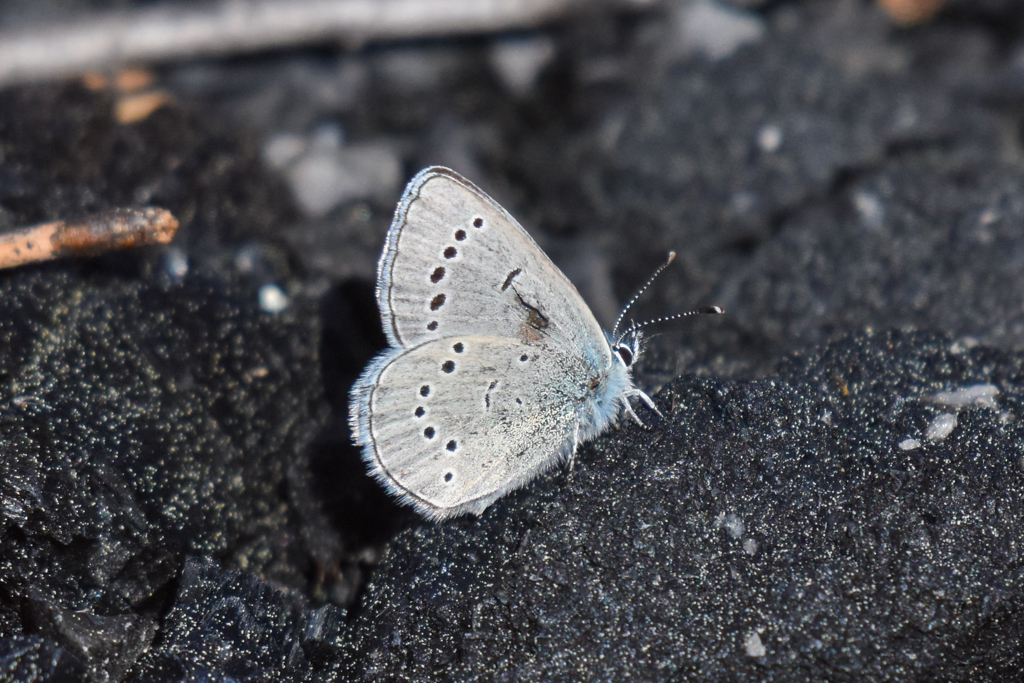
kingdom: Animalia
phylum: Arthropoda
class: Insecta
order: Lepidoptera
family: Lycaenidae
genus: Glaucopsyche
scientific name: Glaucopsyche lygdamus
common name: Silvery blue
